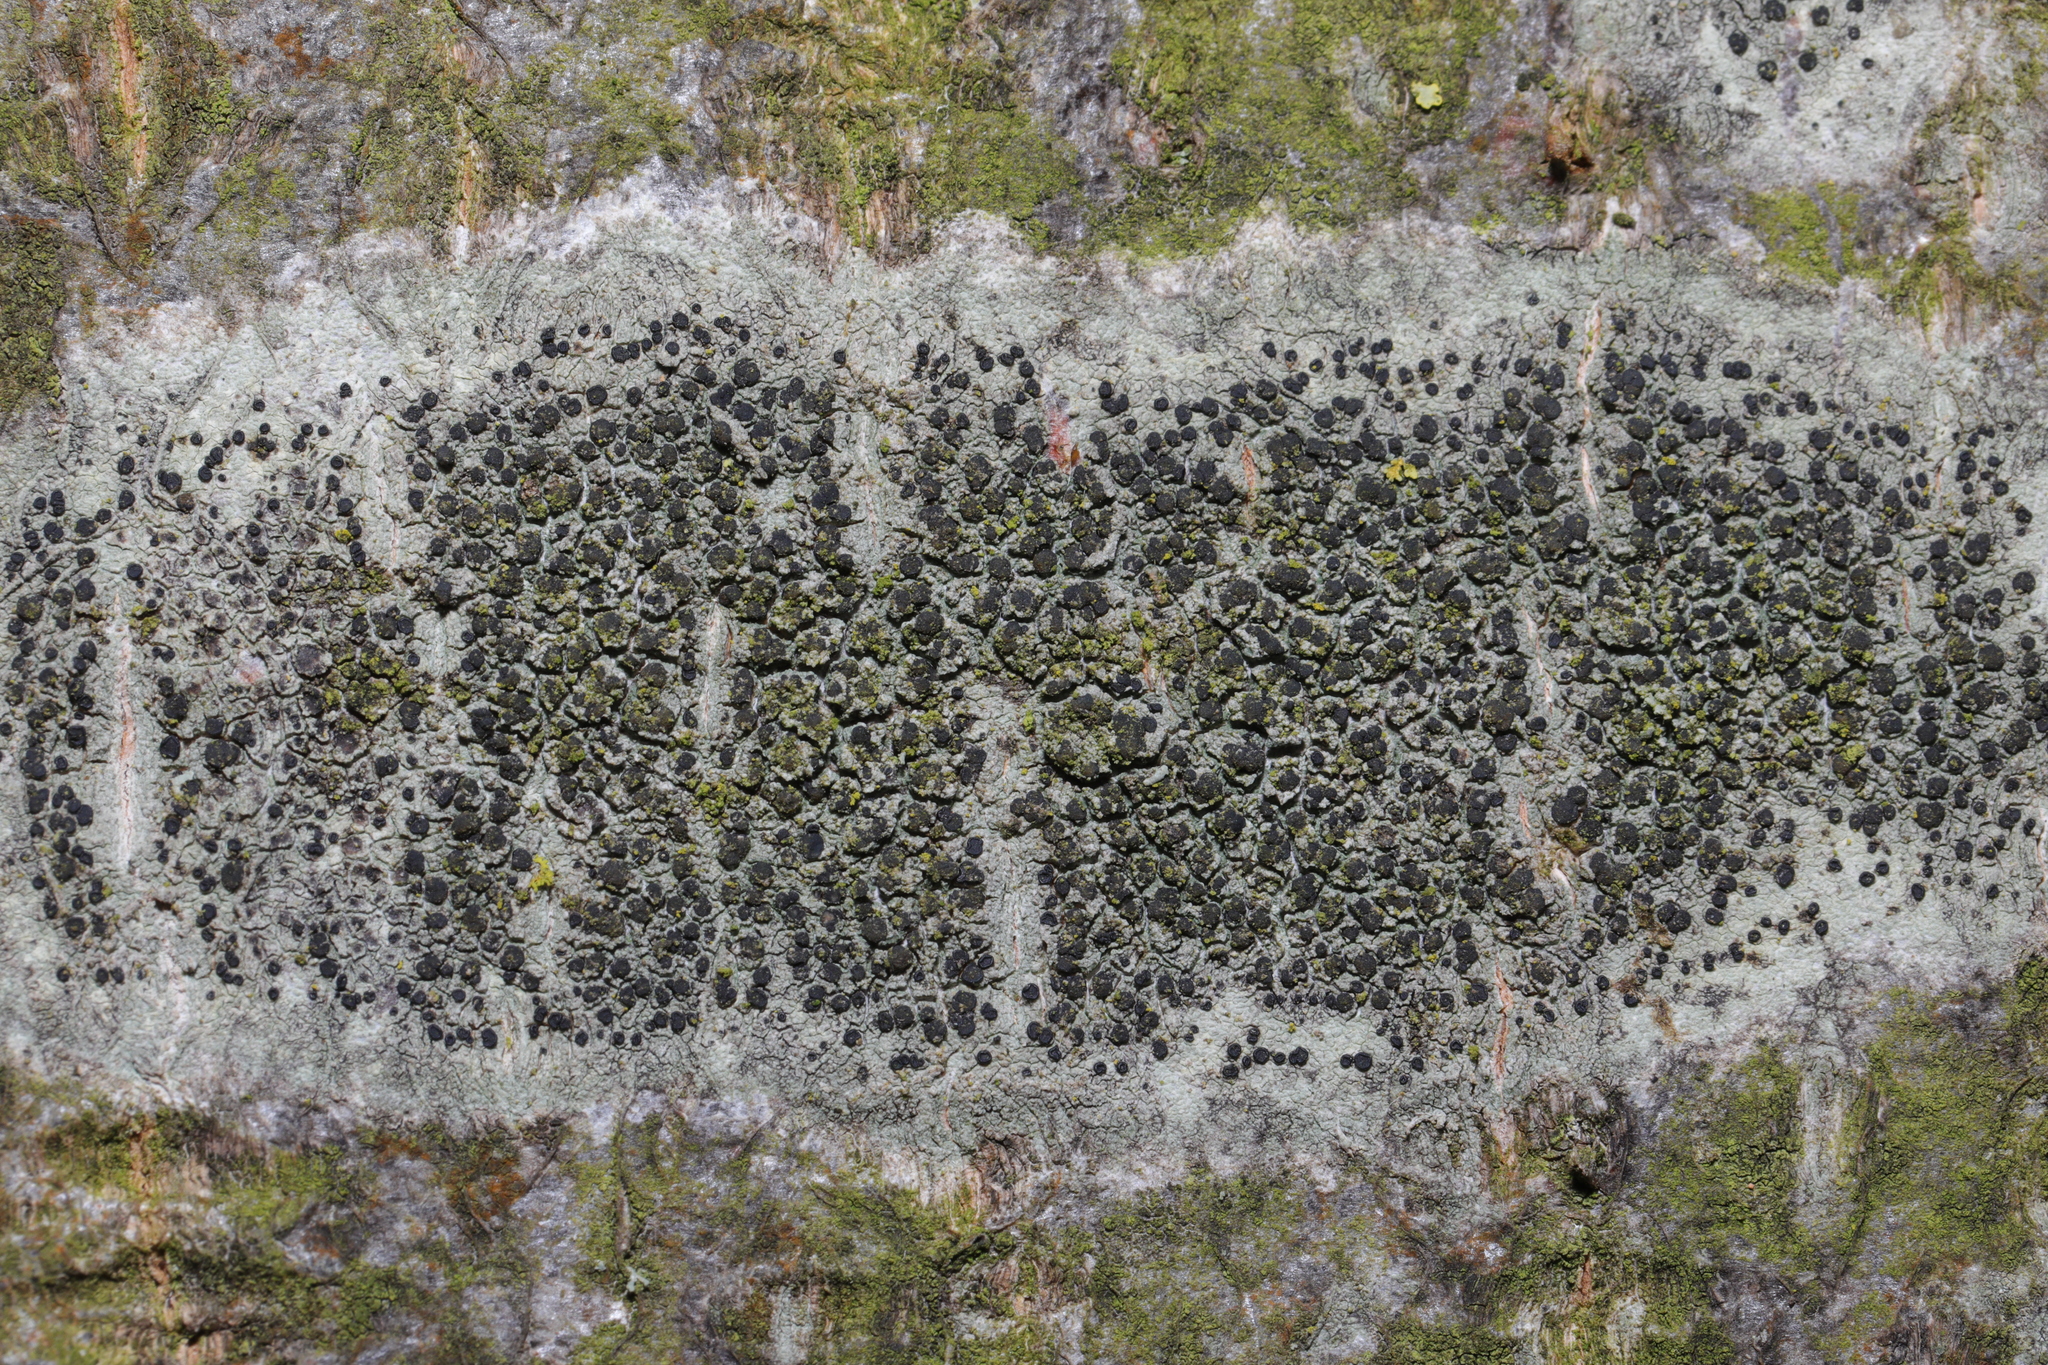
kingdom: Fungi
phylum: Ascomycota
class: Lecanoromycetes
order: Lecanorales
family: Lecanoraceae
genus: Lecidella
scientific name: Lecidella elaeochroma
